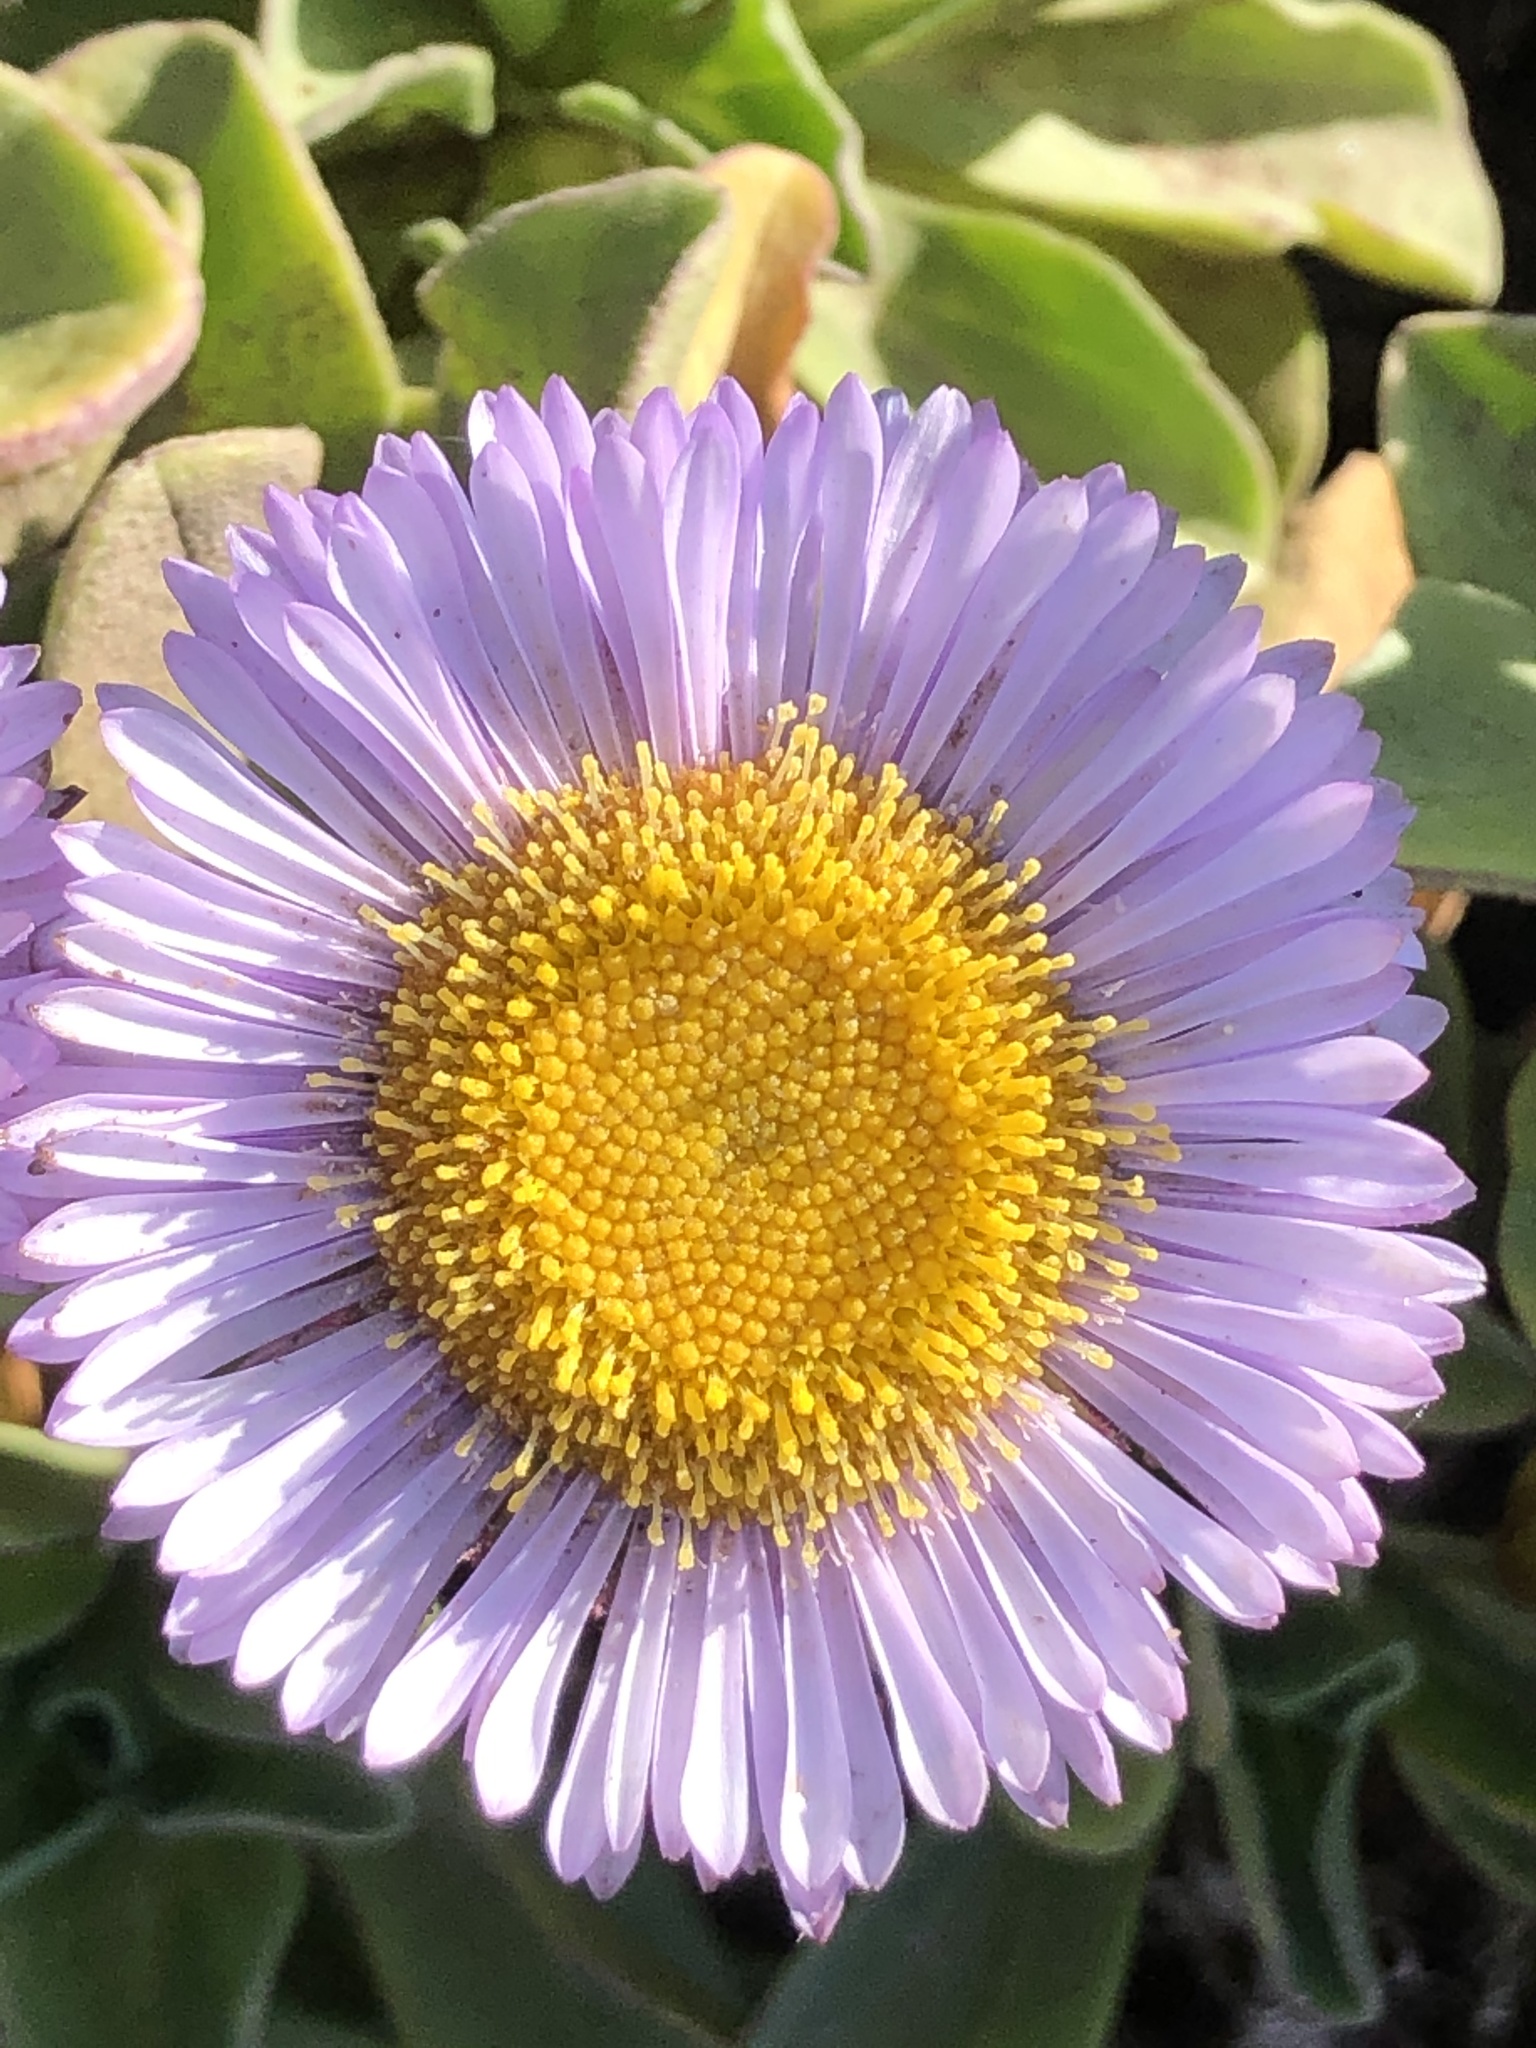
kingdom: Plantae
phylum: Tracheophyta
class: Magnoliopsida
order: Asterales
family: Asteraceae
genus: Erigeron
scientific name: Erigeron glaucus
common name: Seaside daisy
